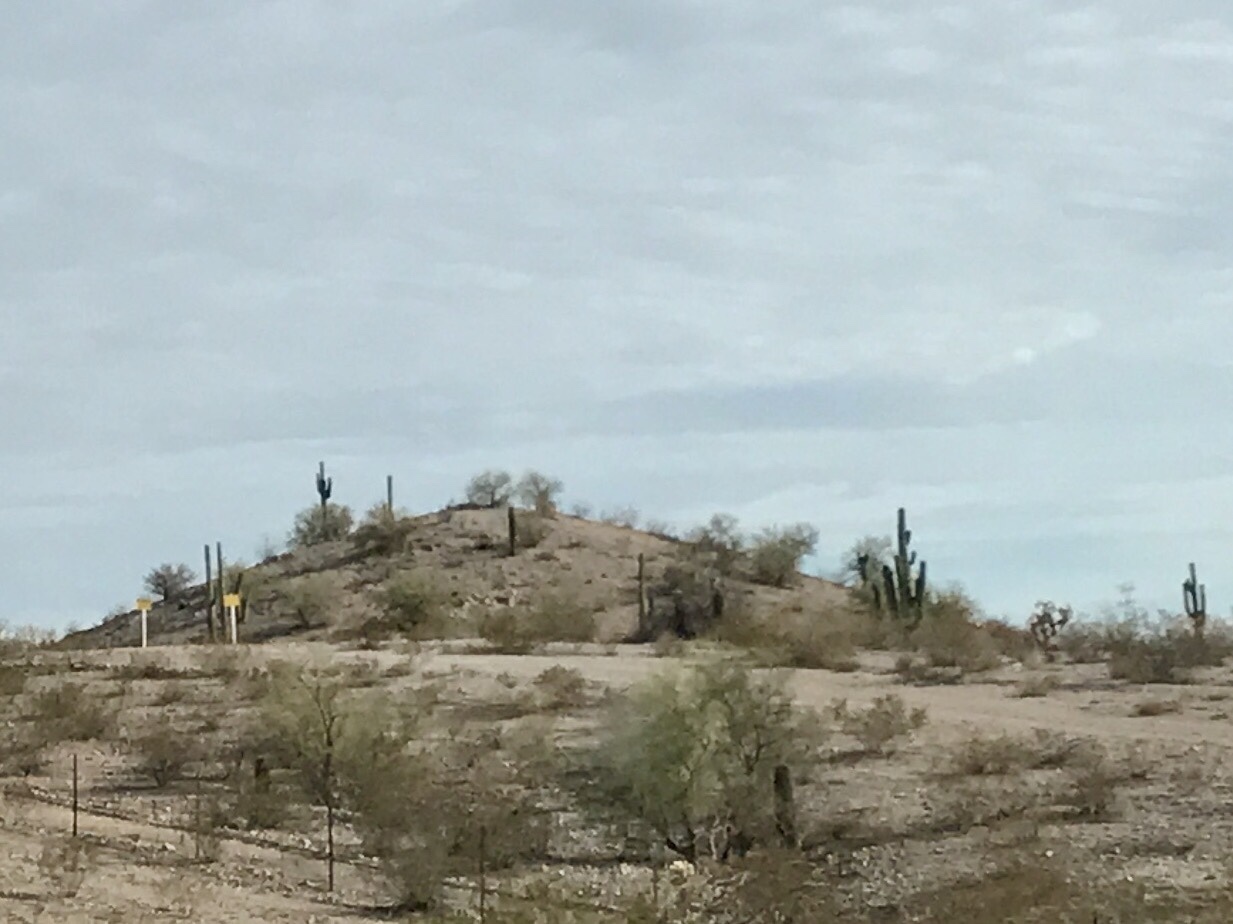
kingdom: Plantae
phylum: Tracheophyta
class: Magnoliopsida
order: Caryophyllales
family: Cactaceae
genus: Carnegiea
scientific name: Carnegiea gigantea
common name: Saguaro
